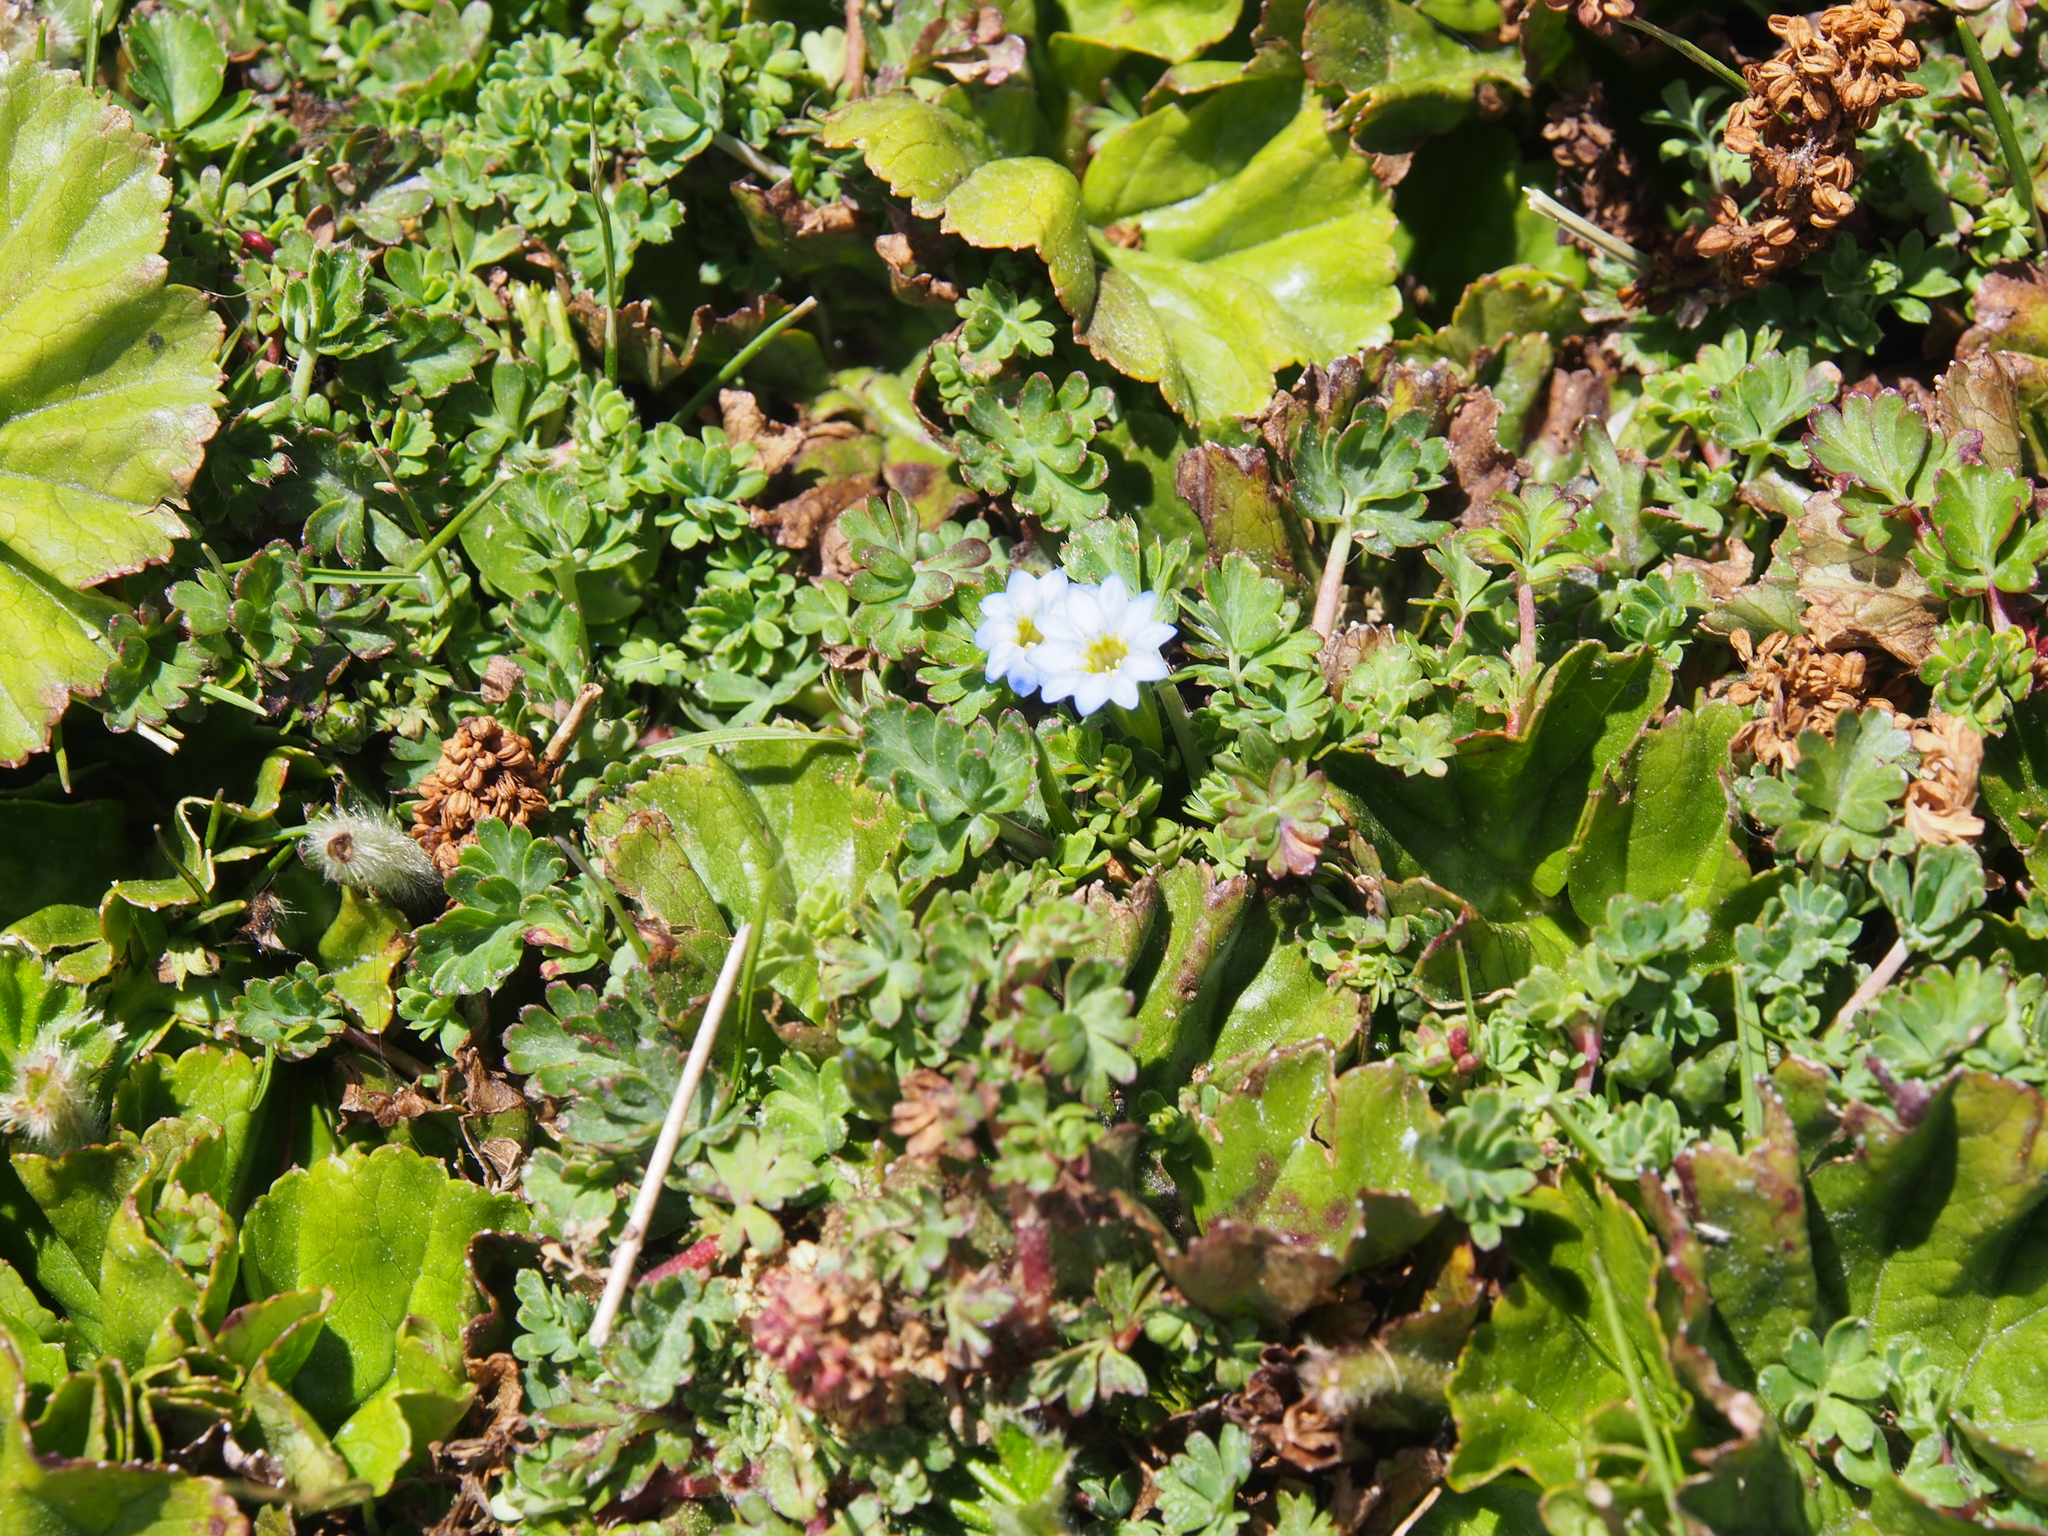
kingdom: Plantae
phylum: Tracheophyta
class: Magnoliopsida
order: Gentianales
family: Gentianaceae
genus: Gentiana
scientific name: Gentiana sedifolia
